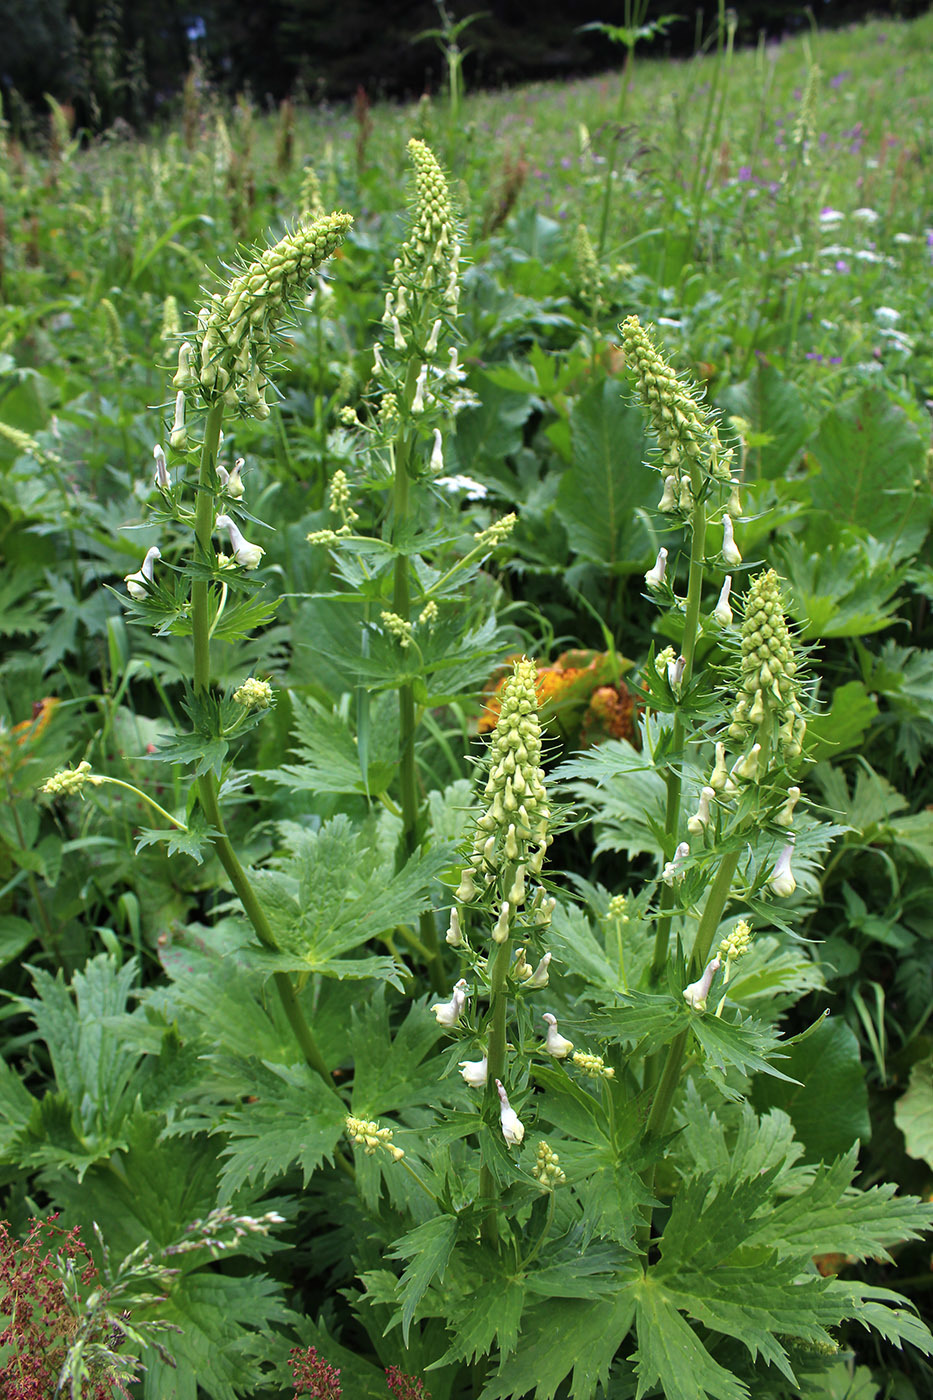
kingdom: Plantae
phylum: Tracheophyta
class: Magnoliopsida
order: Ranunculales
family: Ranunculaceae
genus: Aconitum
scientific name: Aconitum orientale
